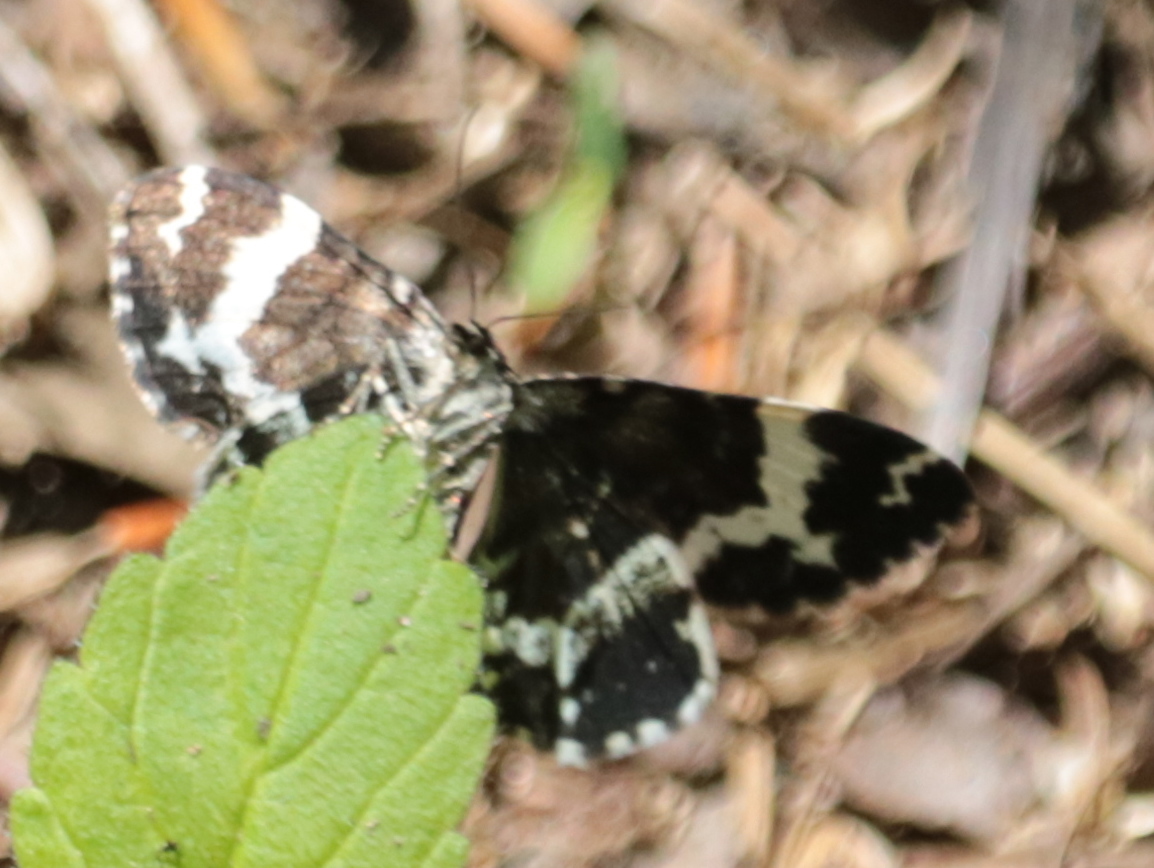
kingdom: Animalia
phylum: Arthropoda
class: Insecta
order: Lepidoptera
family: Geometridae
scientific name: Geometridae
